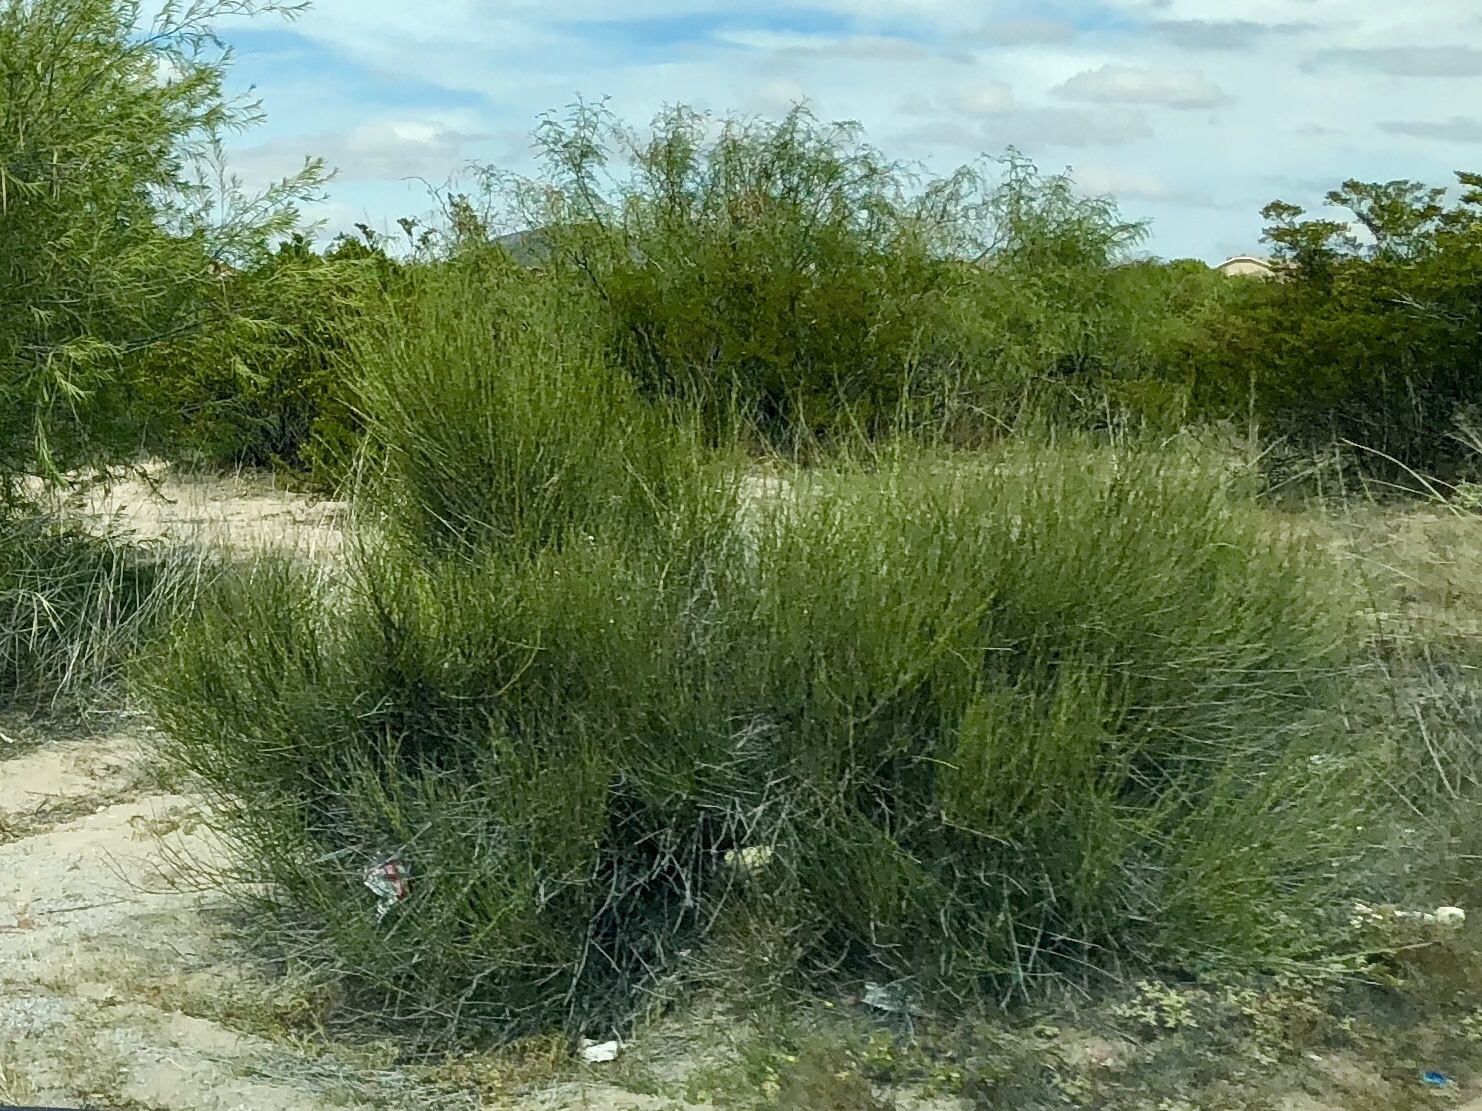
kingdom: Plantae
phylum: Tracheophyta
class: Gnetopsida
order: Ephedrales
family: Ephedraceae
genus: Ephedra
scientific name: Ephedra trifurca
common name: Mexican-tea
